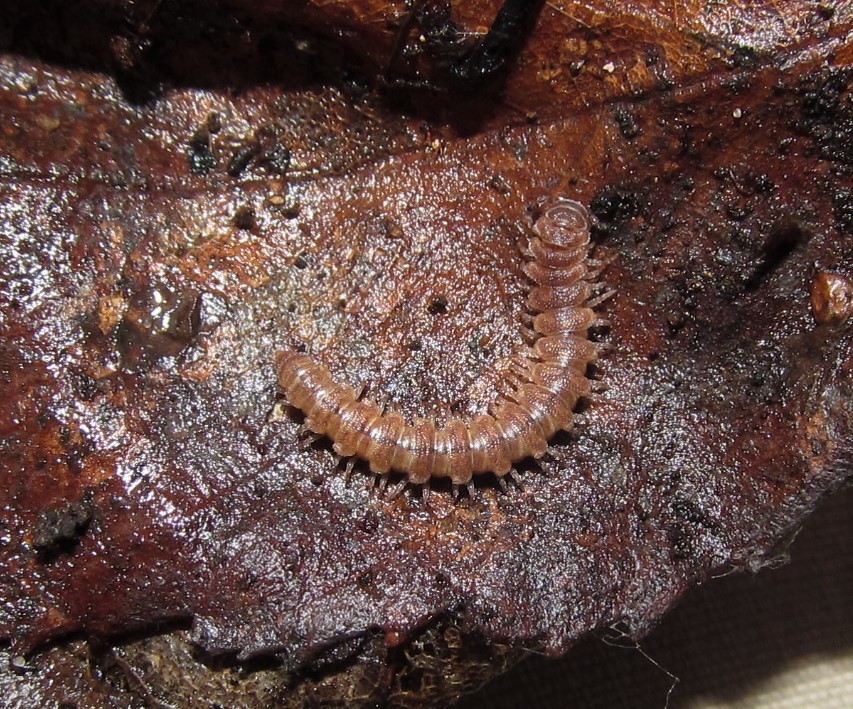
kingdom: Animalia
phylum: Arthropoda
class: Diplopoda
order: Polydesmida
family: Polydesmidae
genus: Scytonotus
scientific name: Scytonotus granulatus
